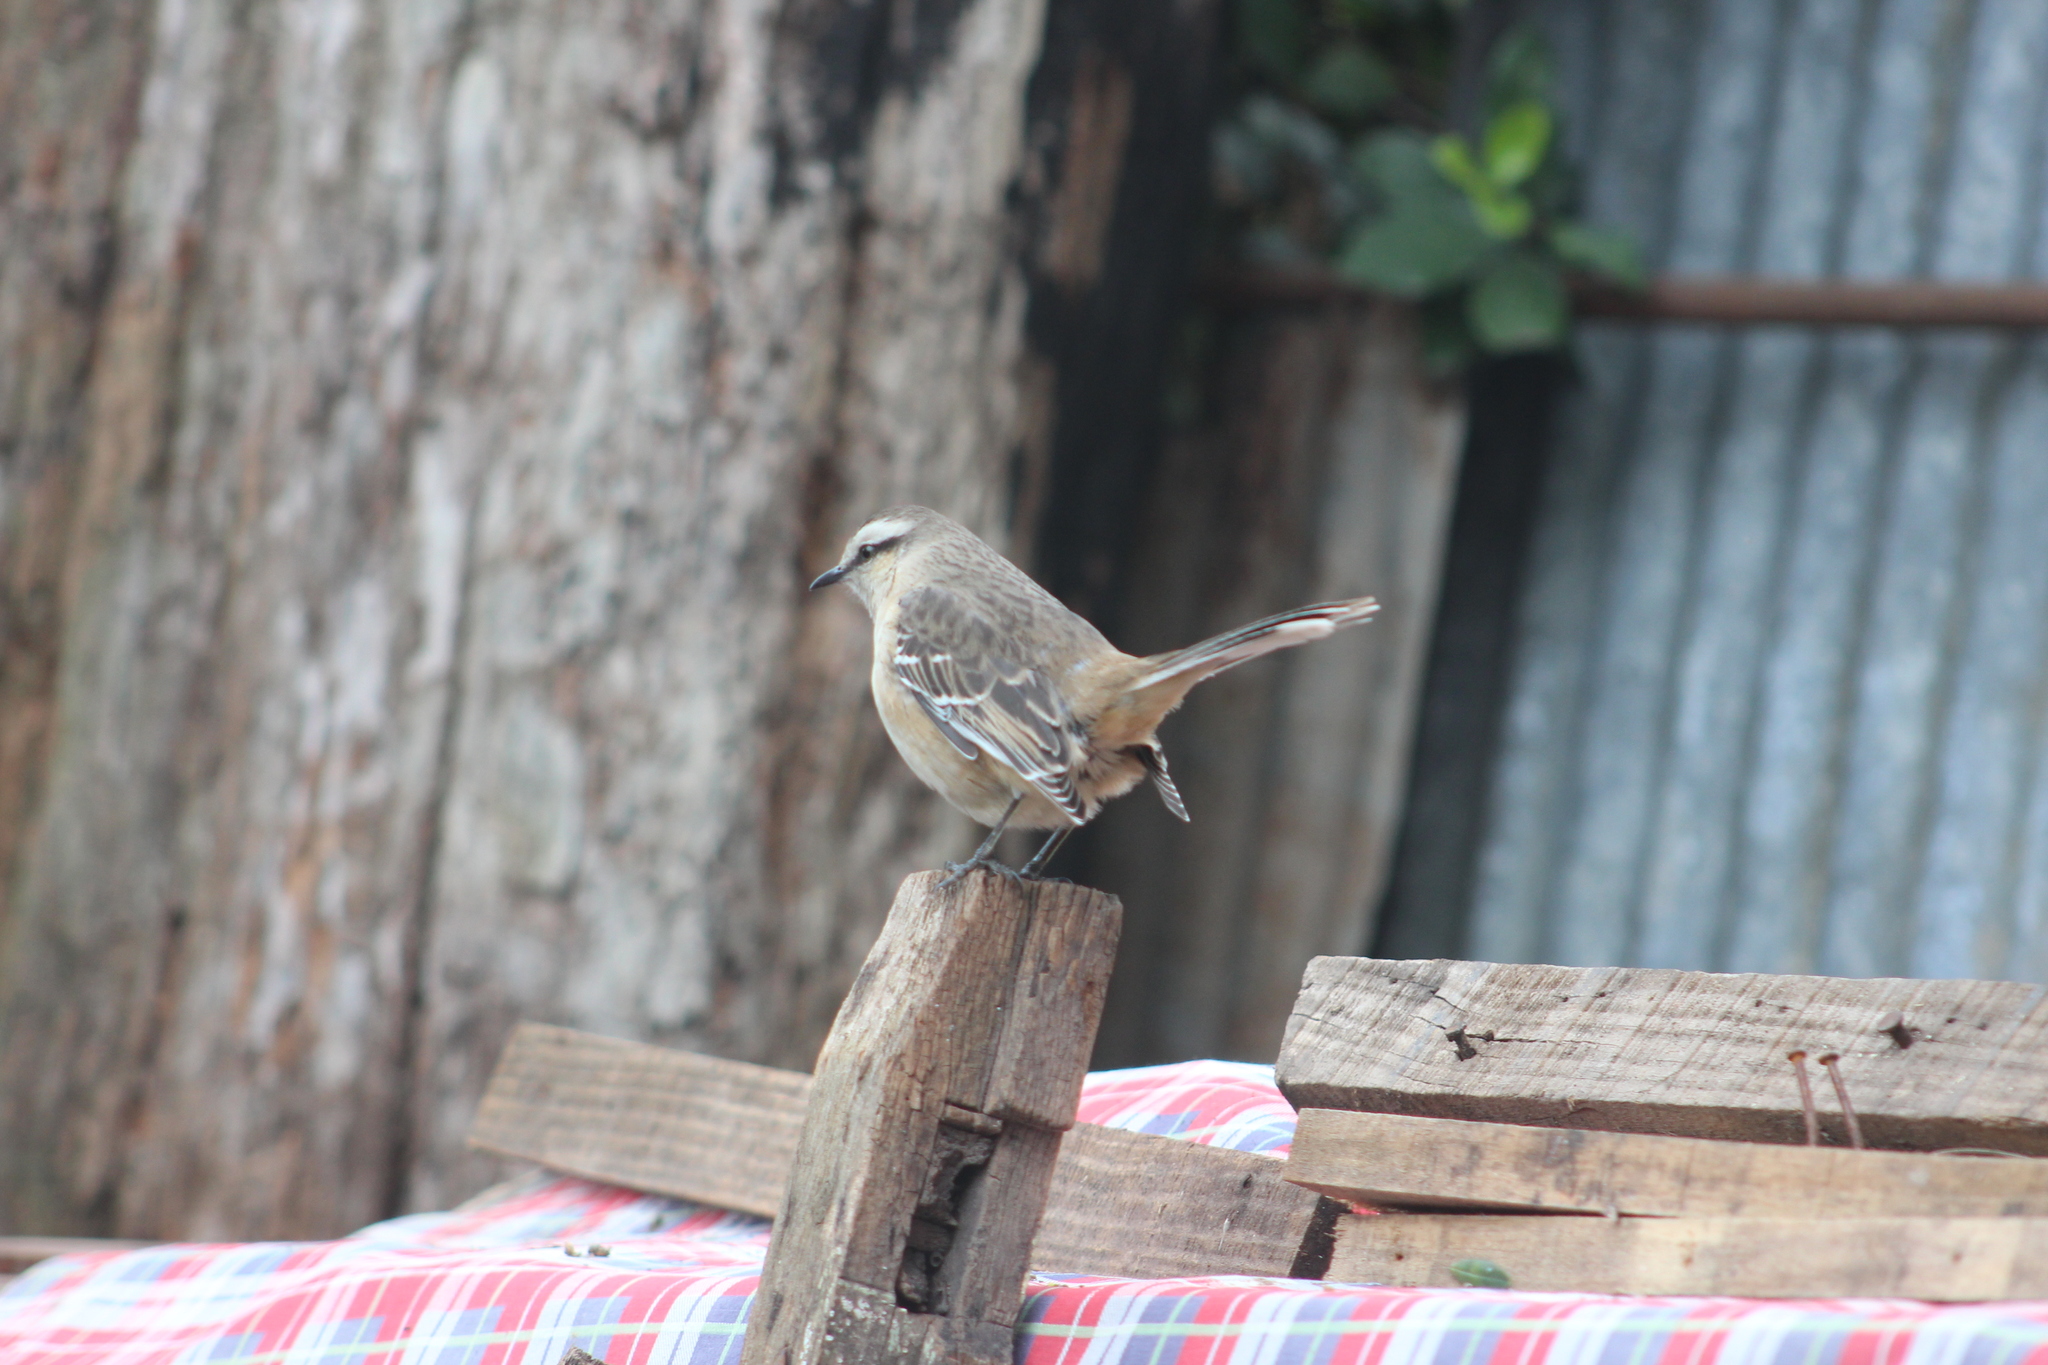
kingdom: Animalia
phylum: Chordata
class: Aves
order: Passeriformes
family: Mimidae
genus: Mimus
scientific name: Mimus saturninus
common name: Chalk-browed mockingbird
